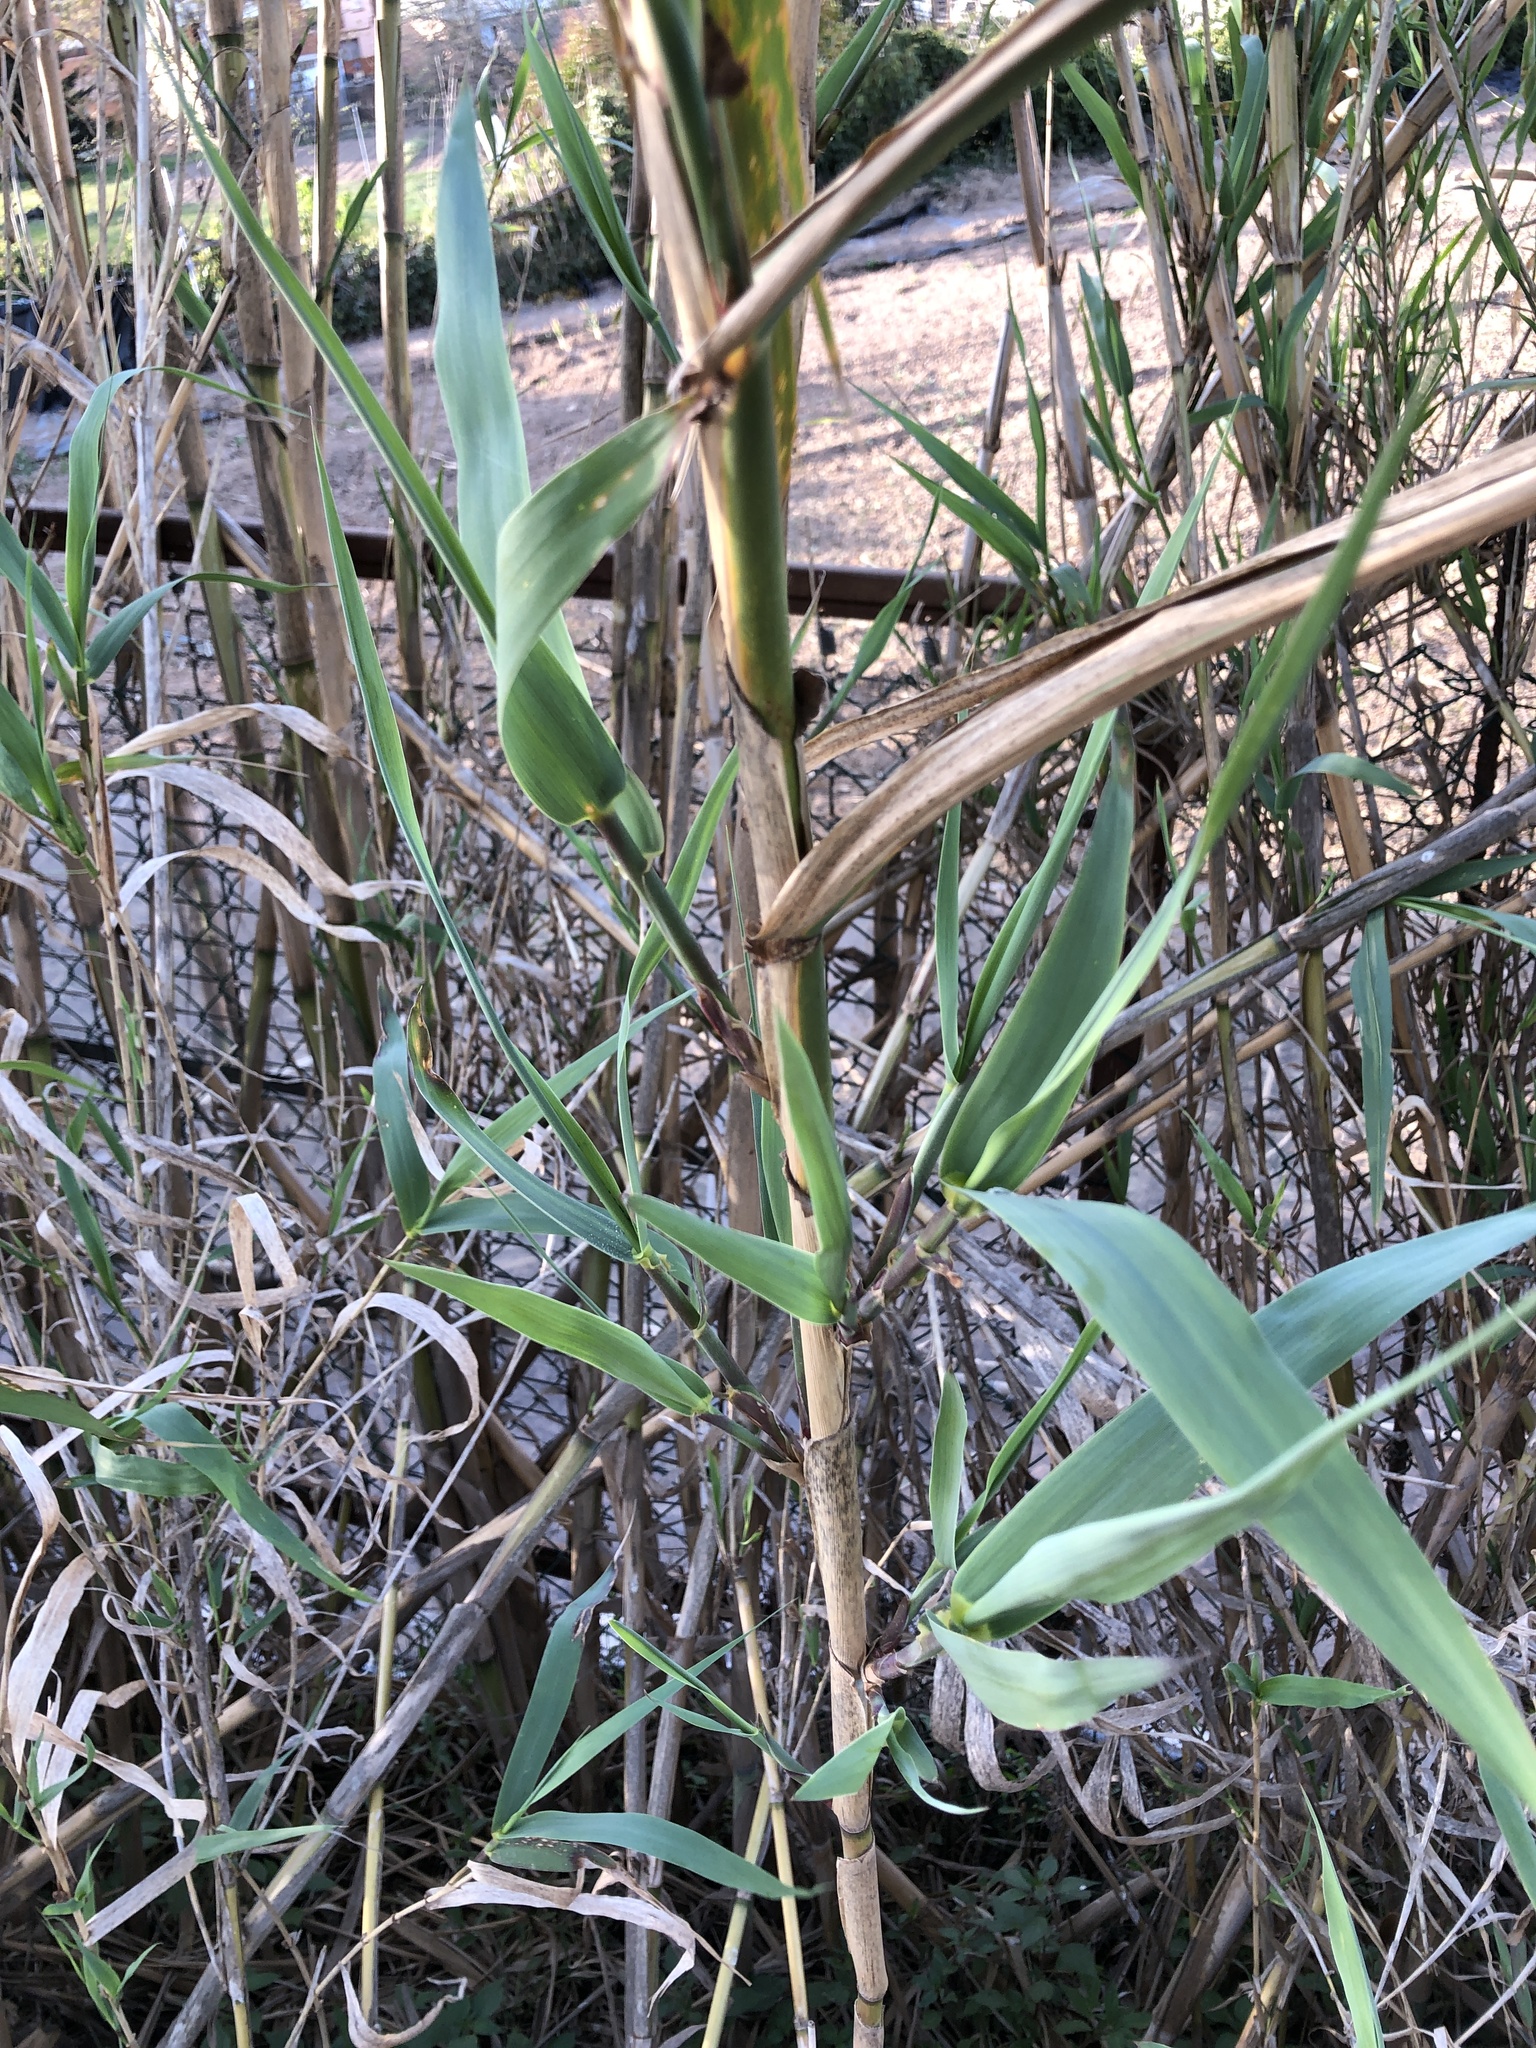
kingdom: Plantae
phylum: Tracheophyta
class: Liliopsida
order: Poales
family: Poaceae
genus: Arundo
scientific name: Arundo donax
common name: Giant reed
